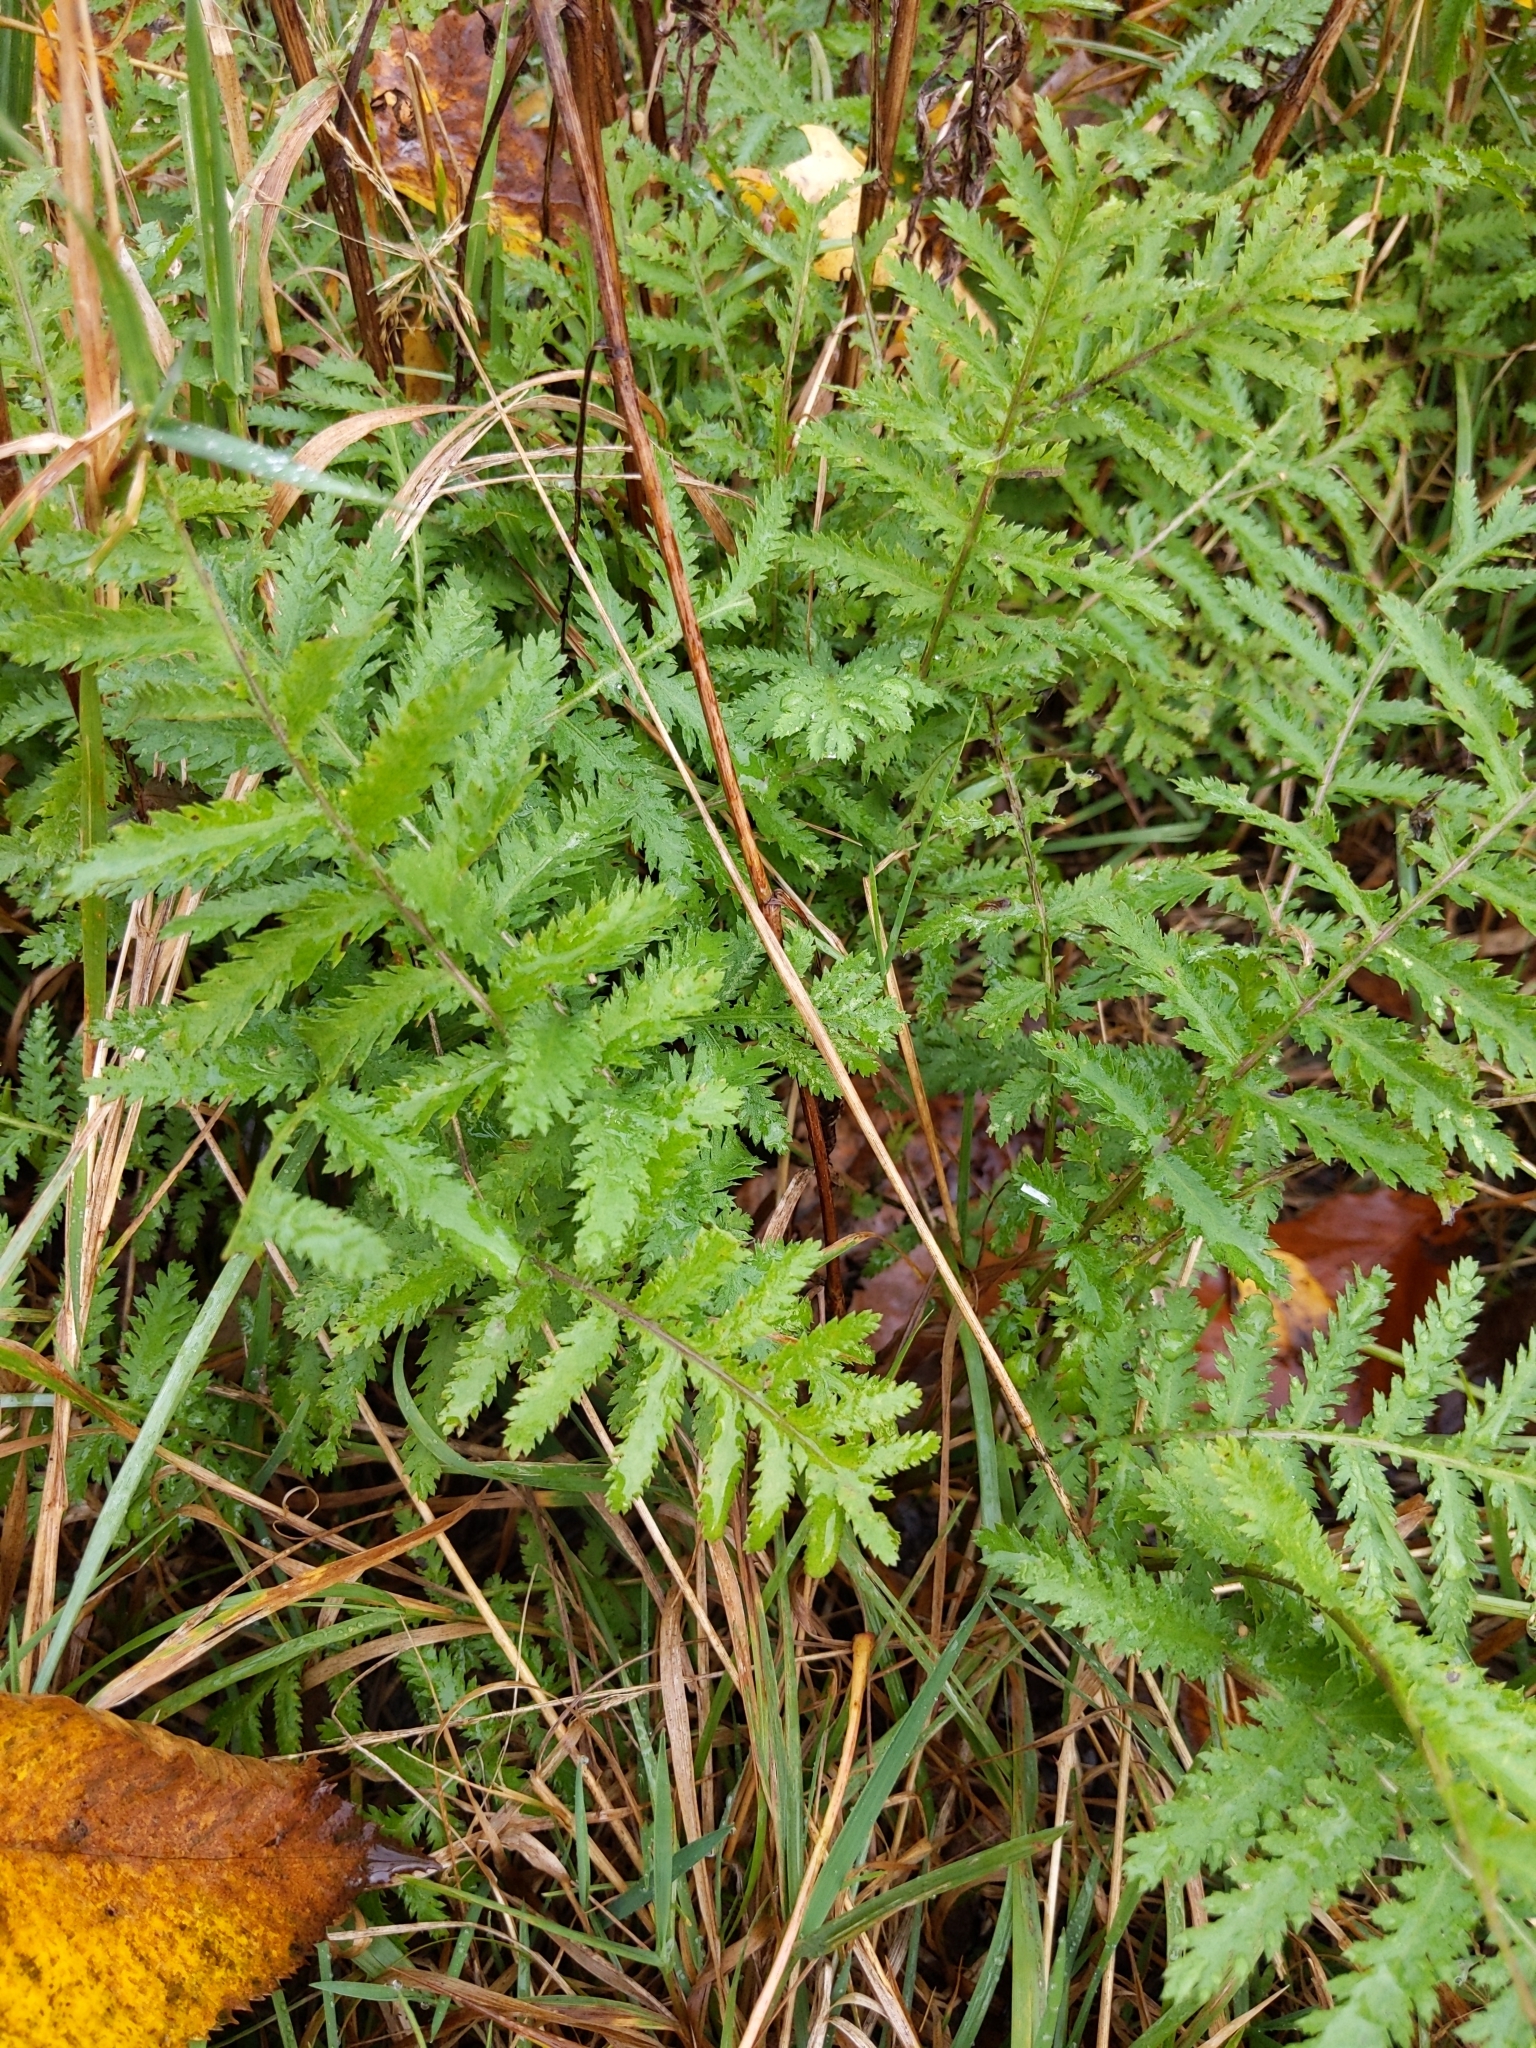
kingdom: Plantae
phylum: Tracheophyta
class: Magnoliopsida
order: Asterales
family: Asteraceae
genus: Tanacetum
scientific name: Tanacetum vulgare
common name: Common tansy
